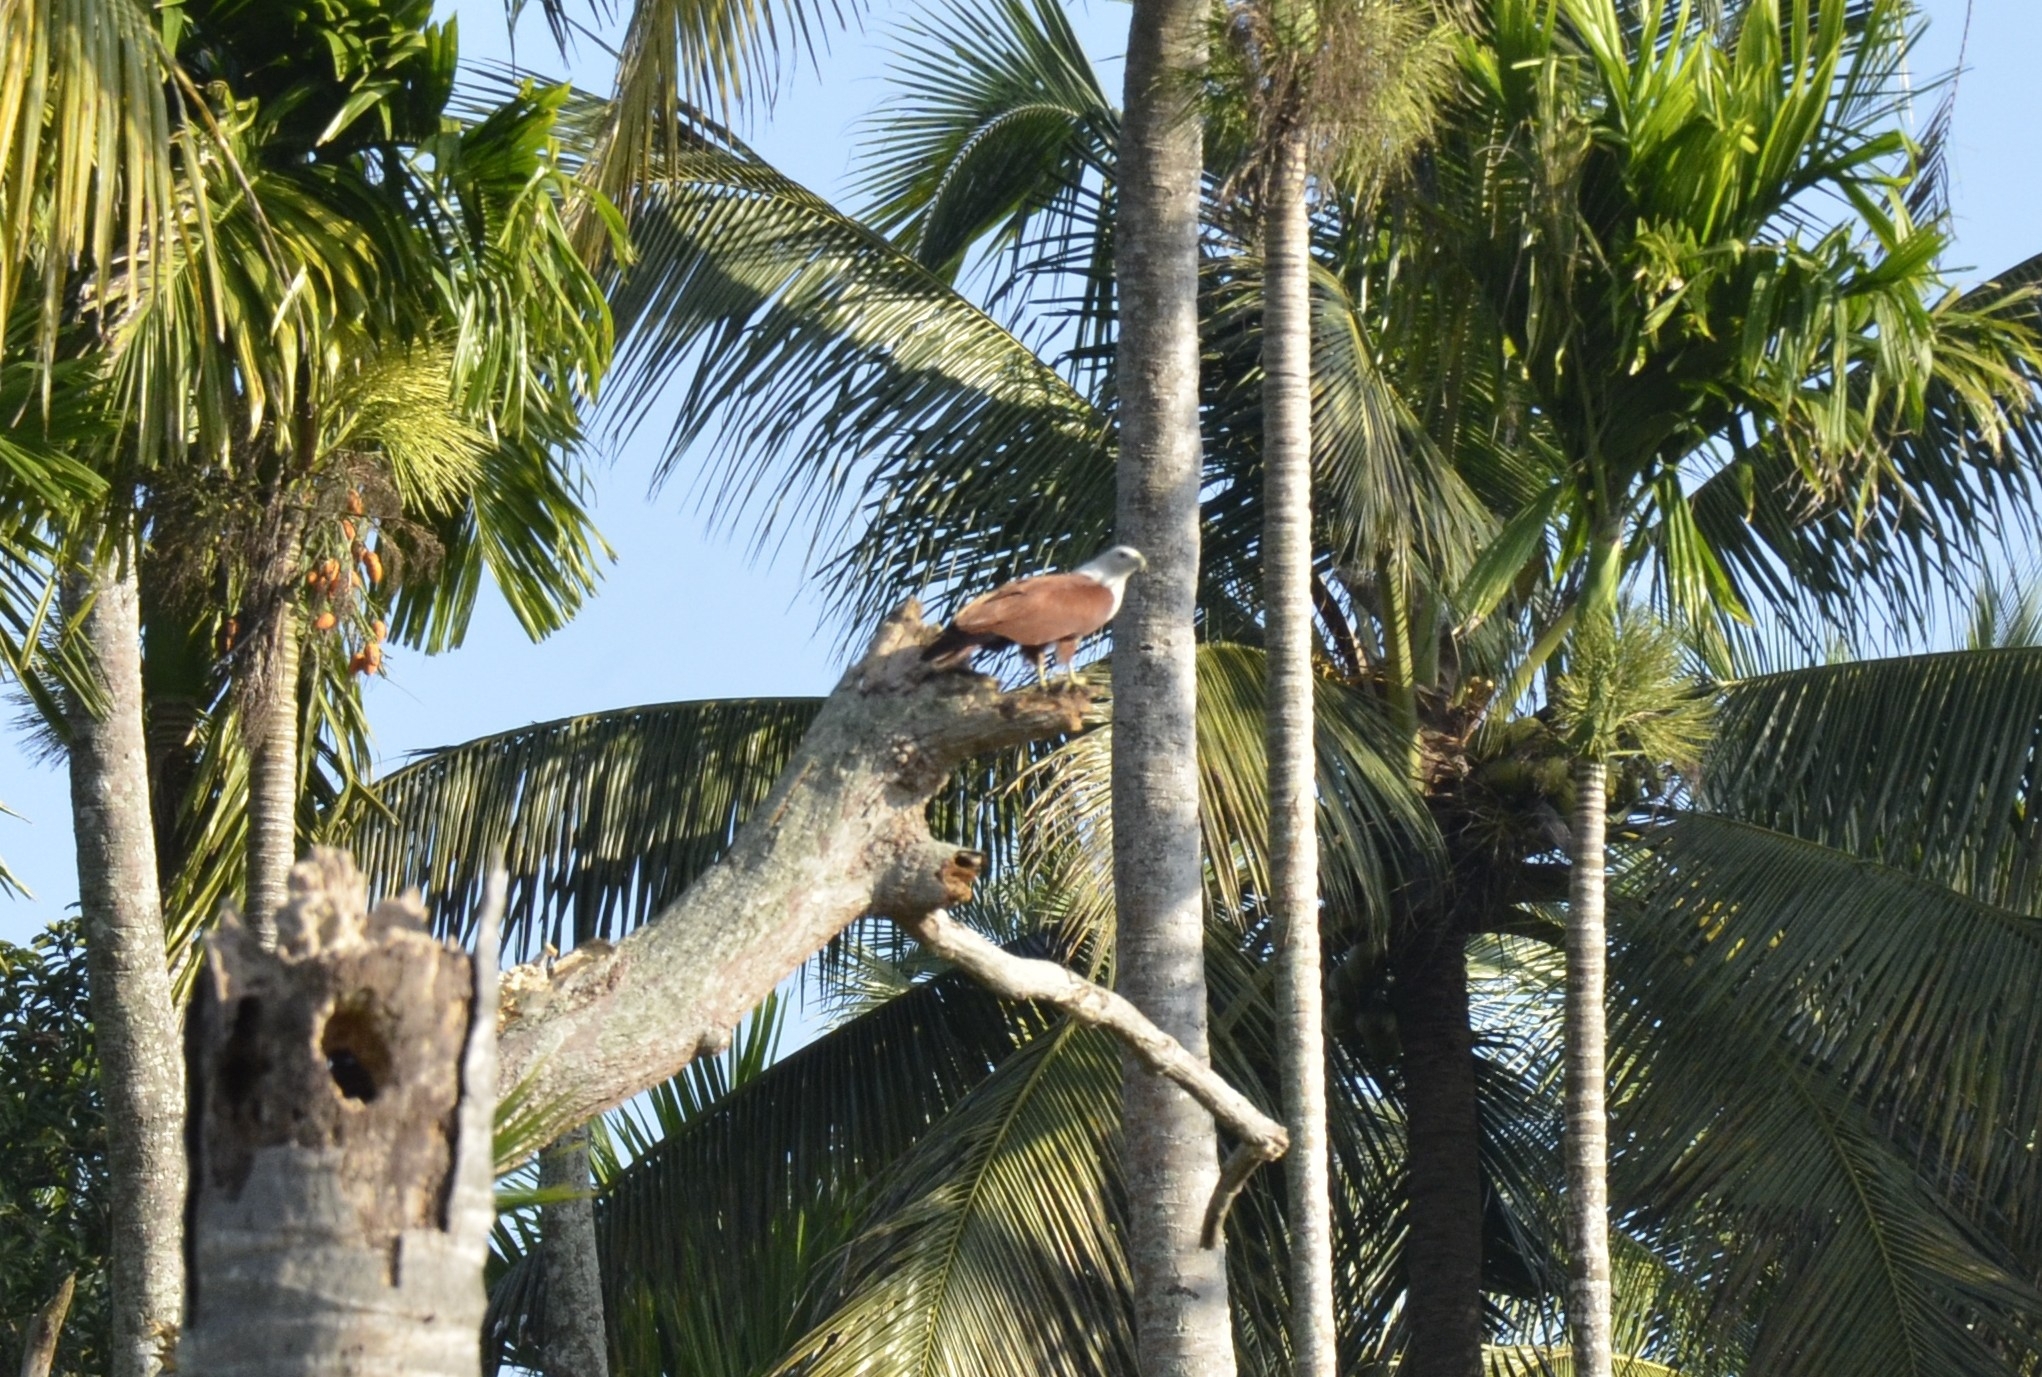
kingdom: Animalia
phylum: Chordata
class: Aves
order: Accipitriformes
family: Accipitridae
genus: Haliastur
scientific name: Haliastur indus
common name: Brahminy kite
